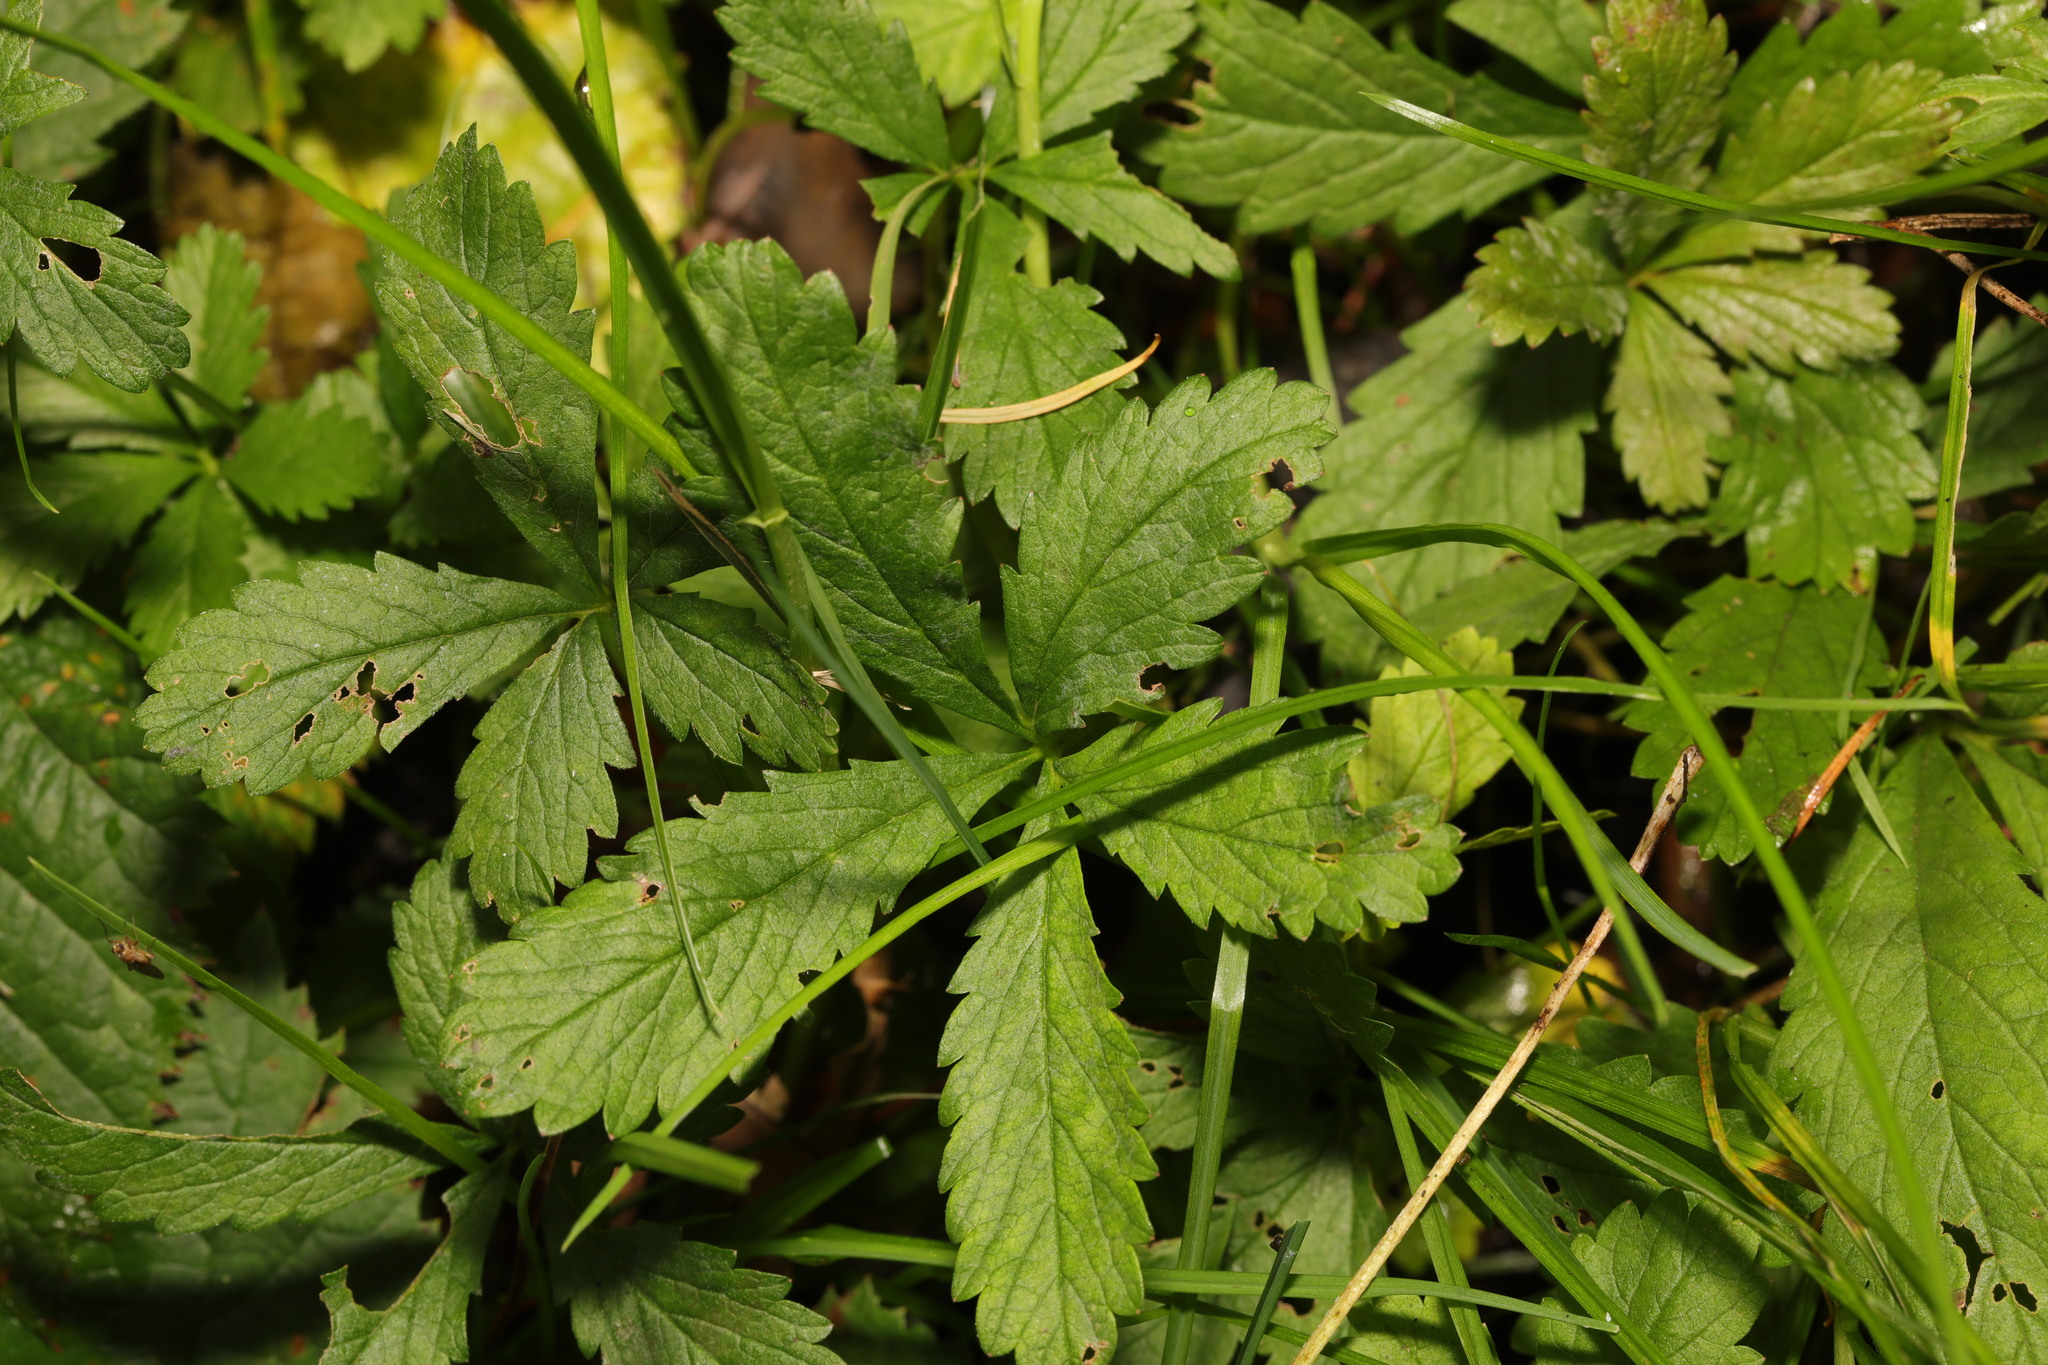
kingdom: Plantae
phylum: Tracheophyta
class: Magnoliopsida
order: Rosales
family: Rosaceae
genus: Potentilla
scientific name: Potentilla reptans
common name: Creeping cinquefoil
